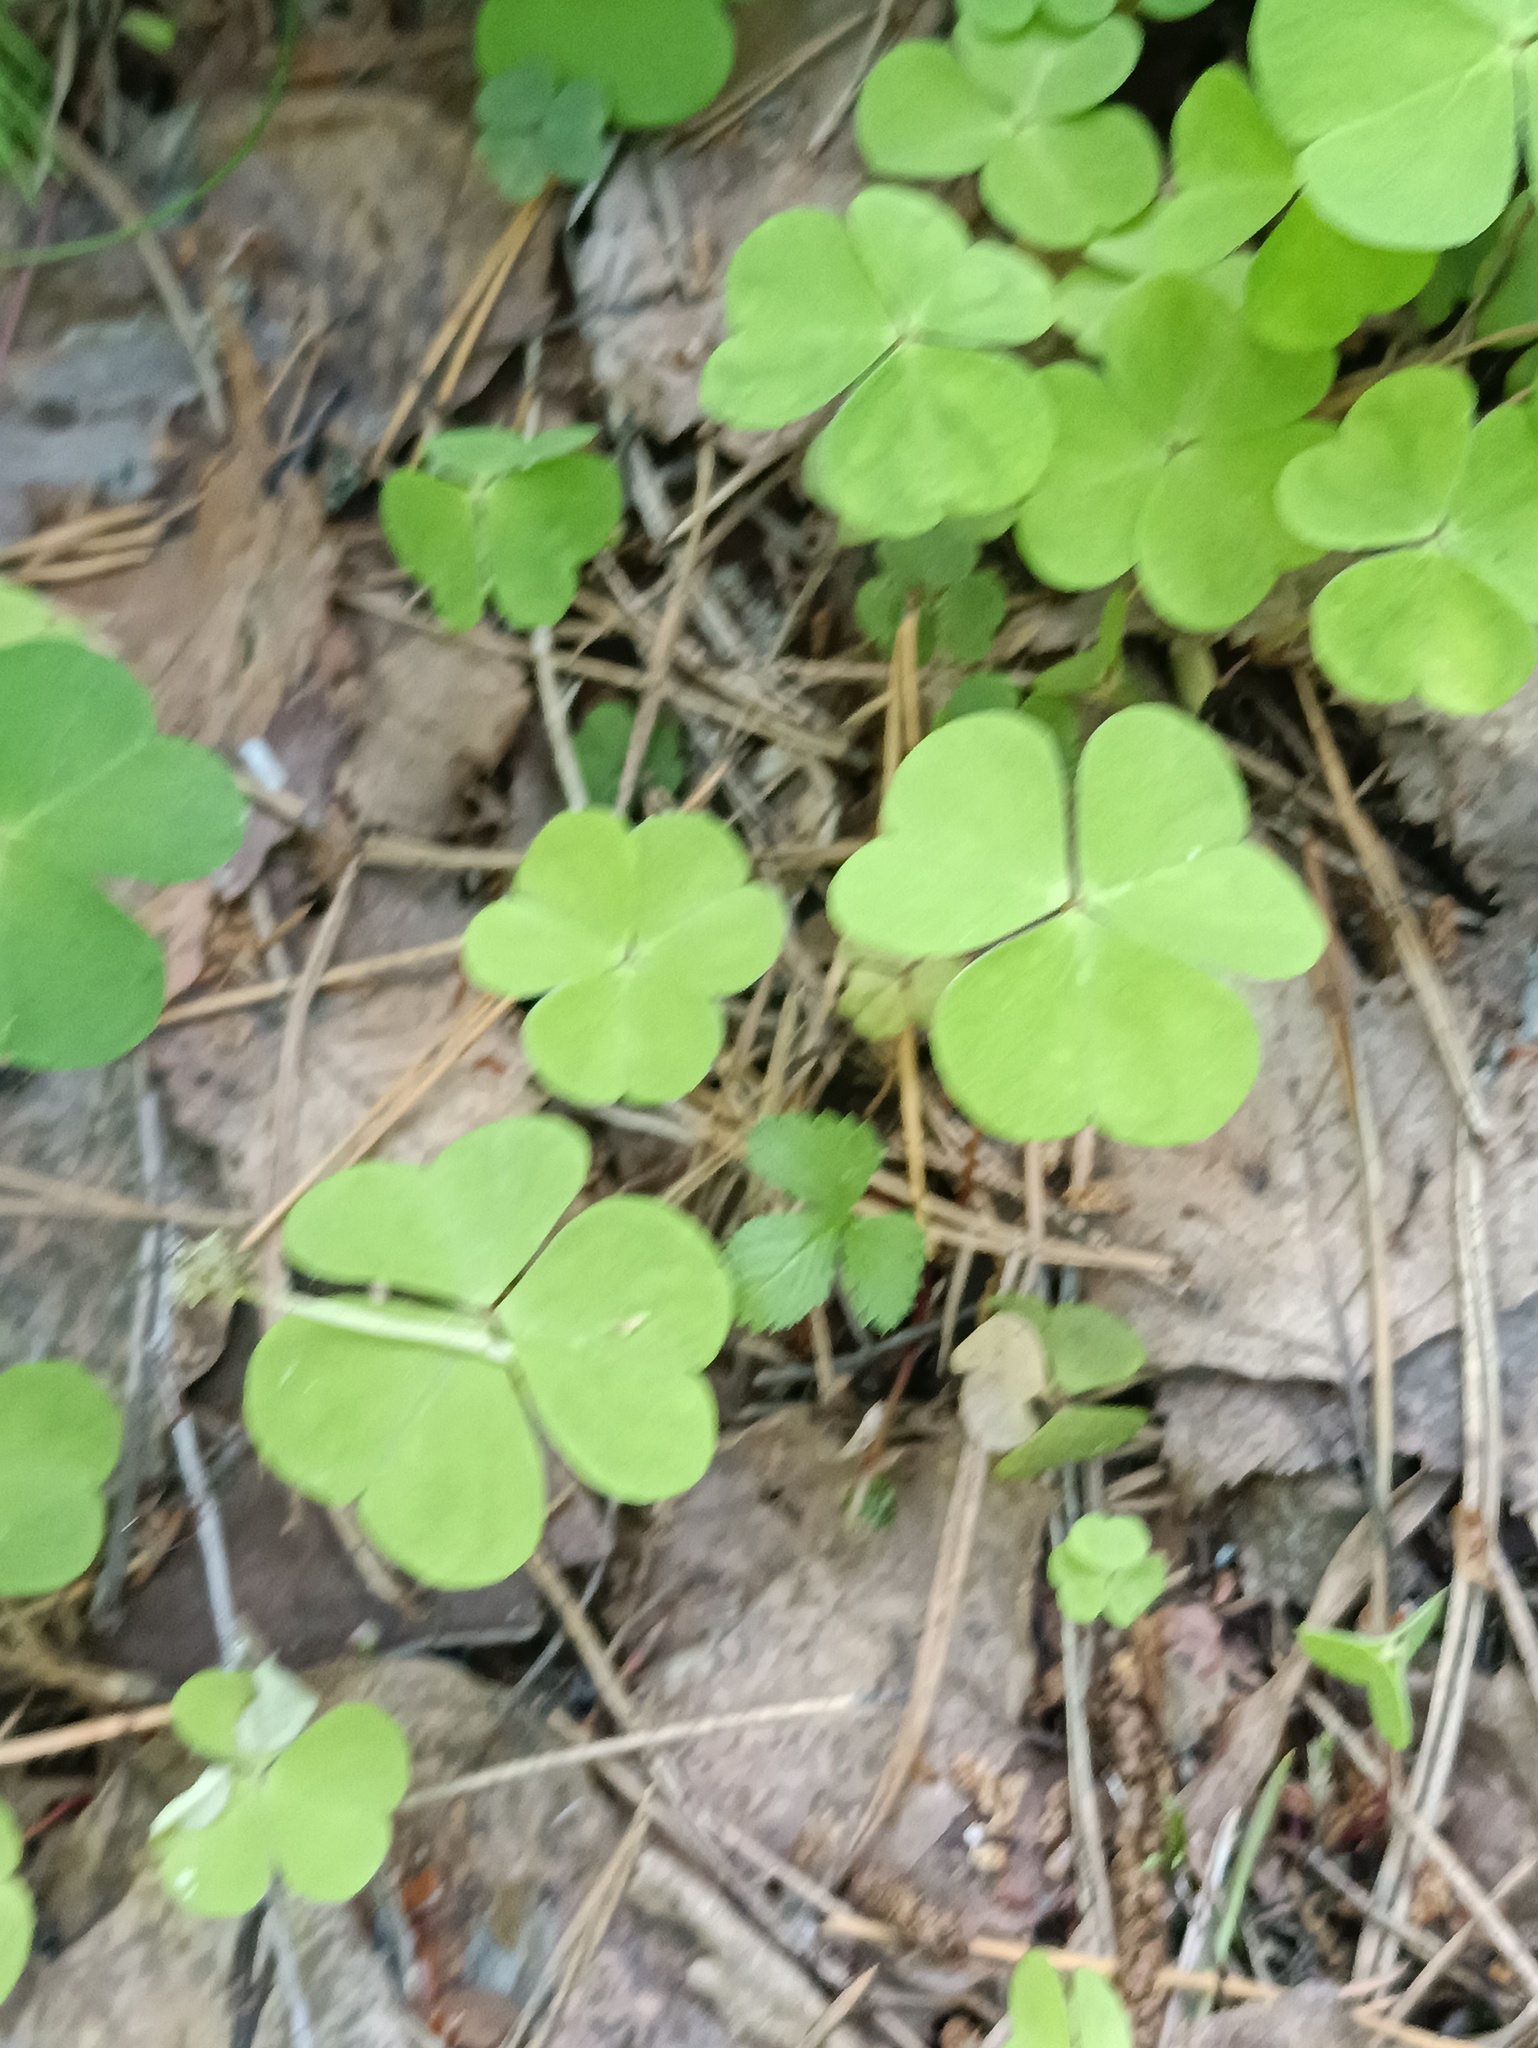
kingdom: Plantae
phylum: Tracheophyta
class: Magnoliopsida
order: Oxalidales
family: Oxalidaceae
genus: Oxalis
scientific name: Oxalis acetosella
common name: Wood-sorrel
